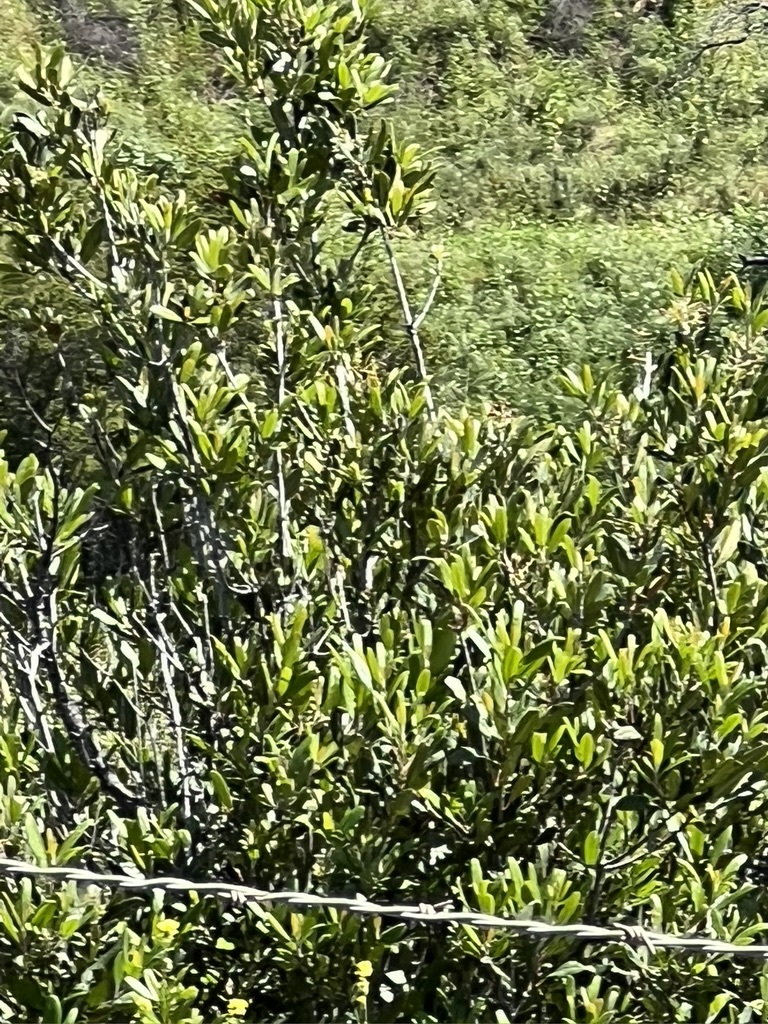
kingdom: Plantae
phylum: Tracheophyta
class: Magnoliopsida
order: Rosales
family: Rosaceae
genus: Heteromeles
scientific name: Heteromeles arbutifolia
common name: California-holly
